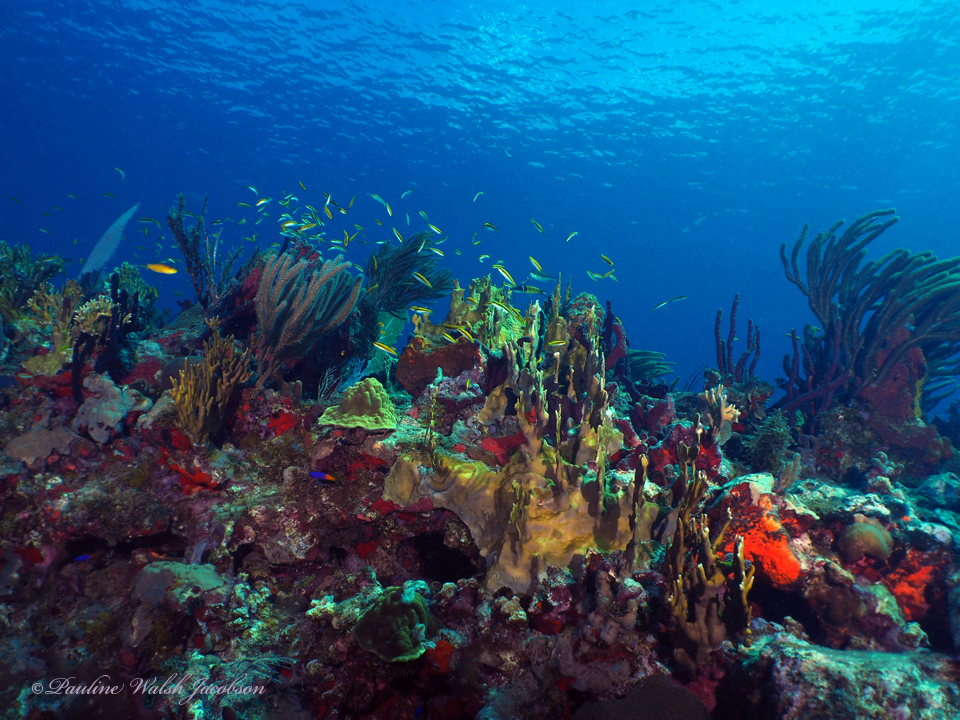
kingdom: Animalia
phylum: Chordata
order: Perciformes
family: Labridae
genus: Thalassoma
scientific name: Thalassoma bifasciatum
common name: Bluehead wrasse
